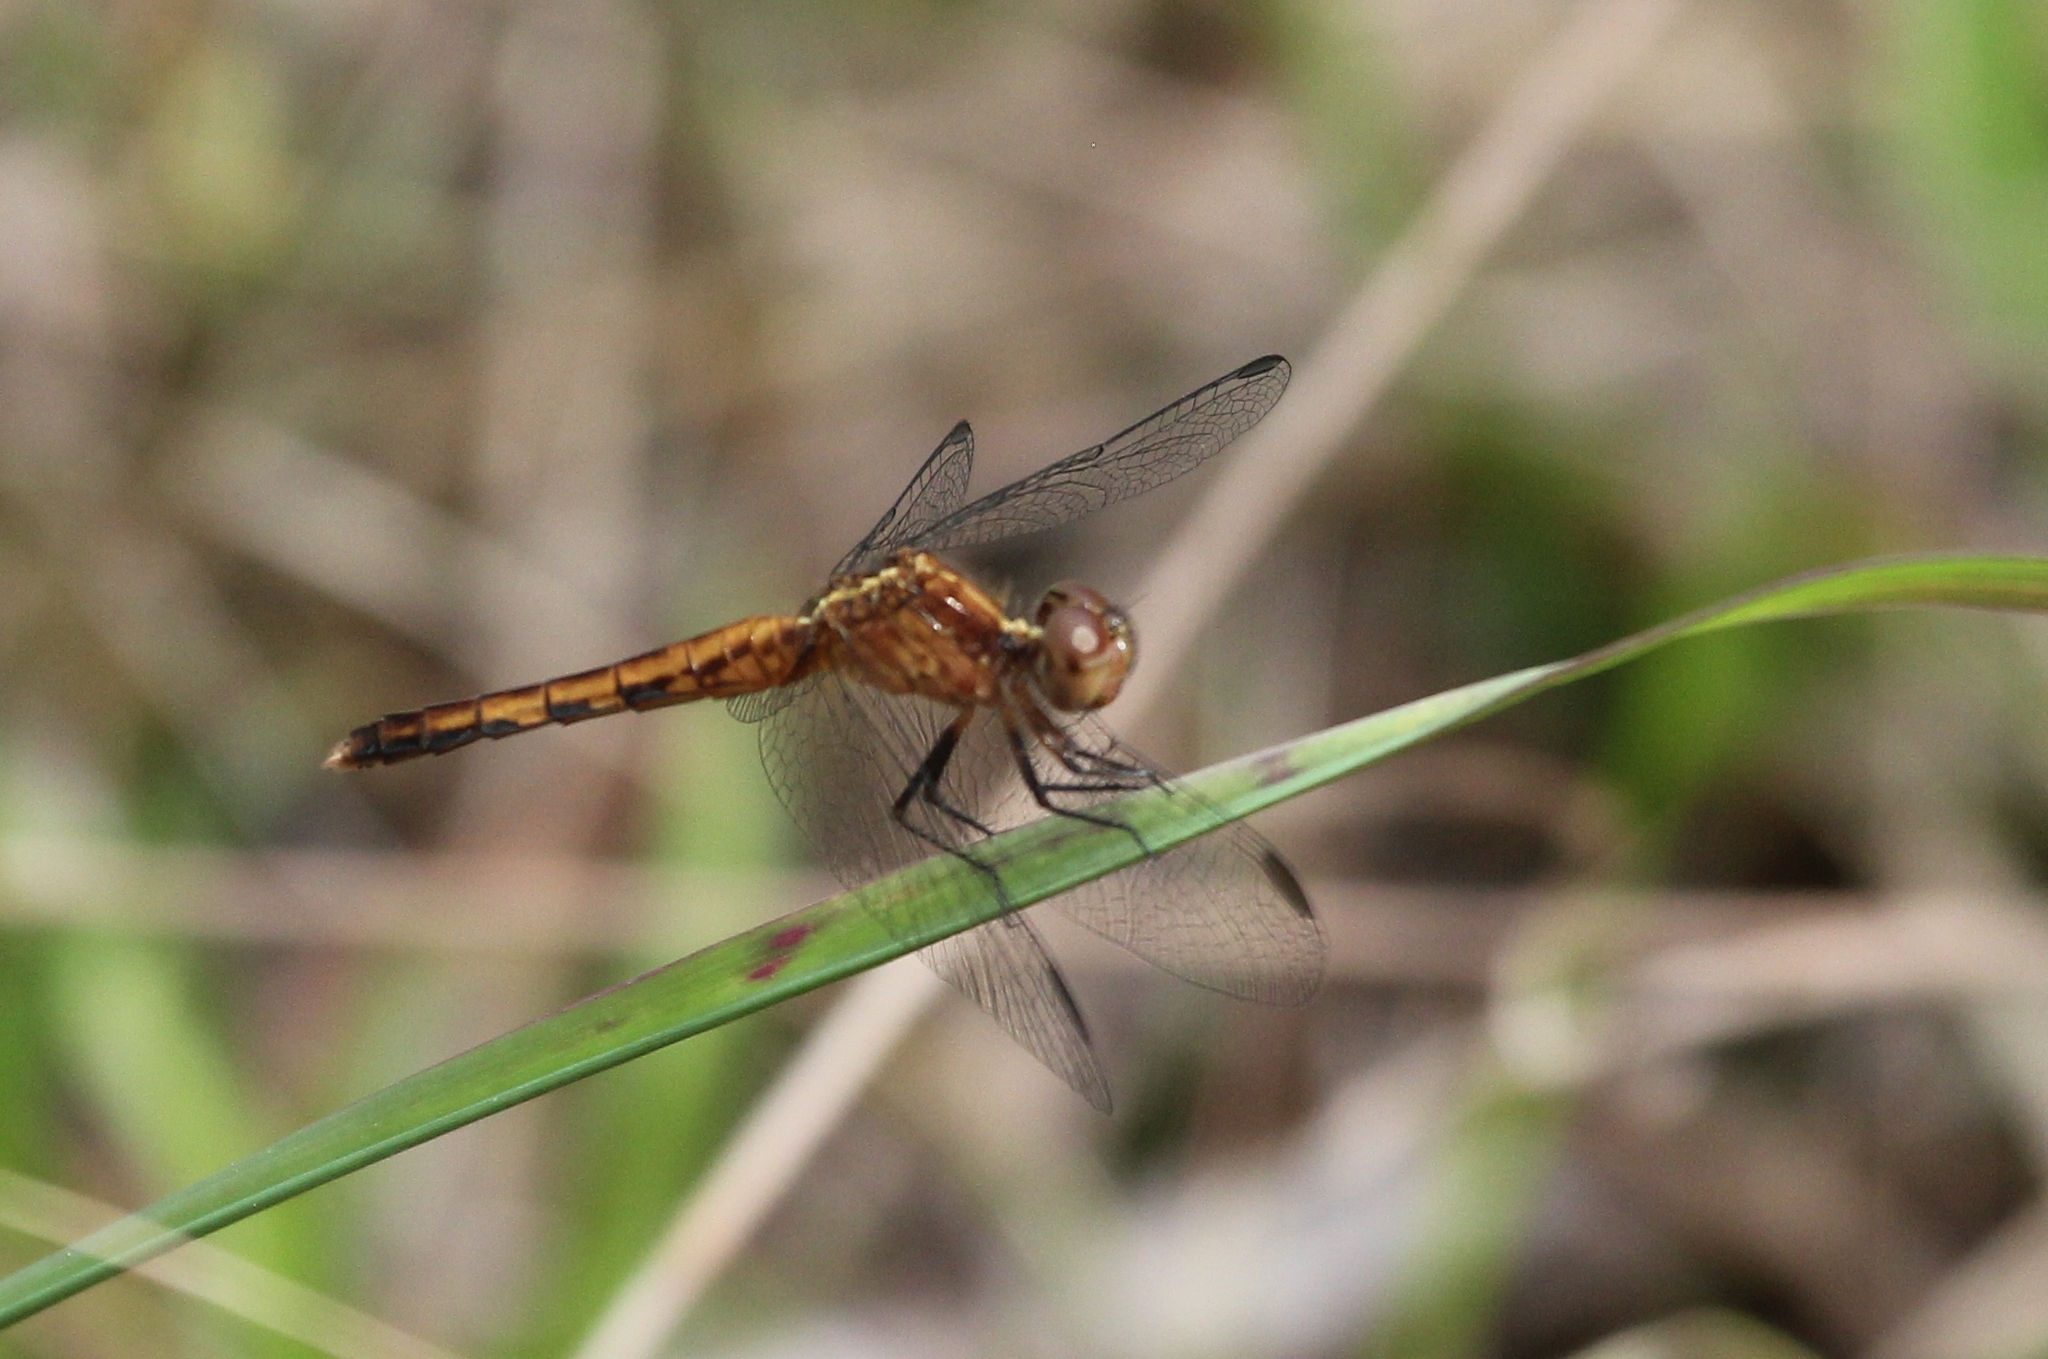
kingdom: Animalia
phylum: Arthropoda
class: Insecta
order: Odonata
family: Libellulidae
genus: Erythrodiplax
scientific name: Erythrodiplax minuscula
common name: Little blue dragonlet
